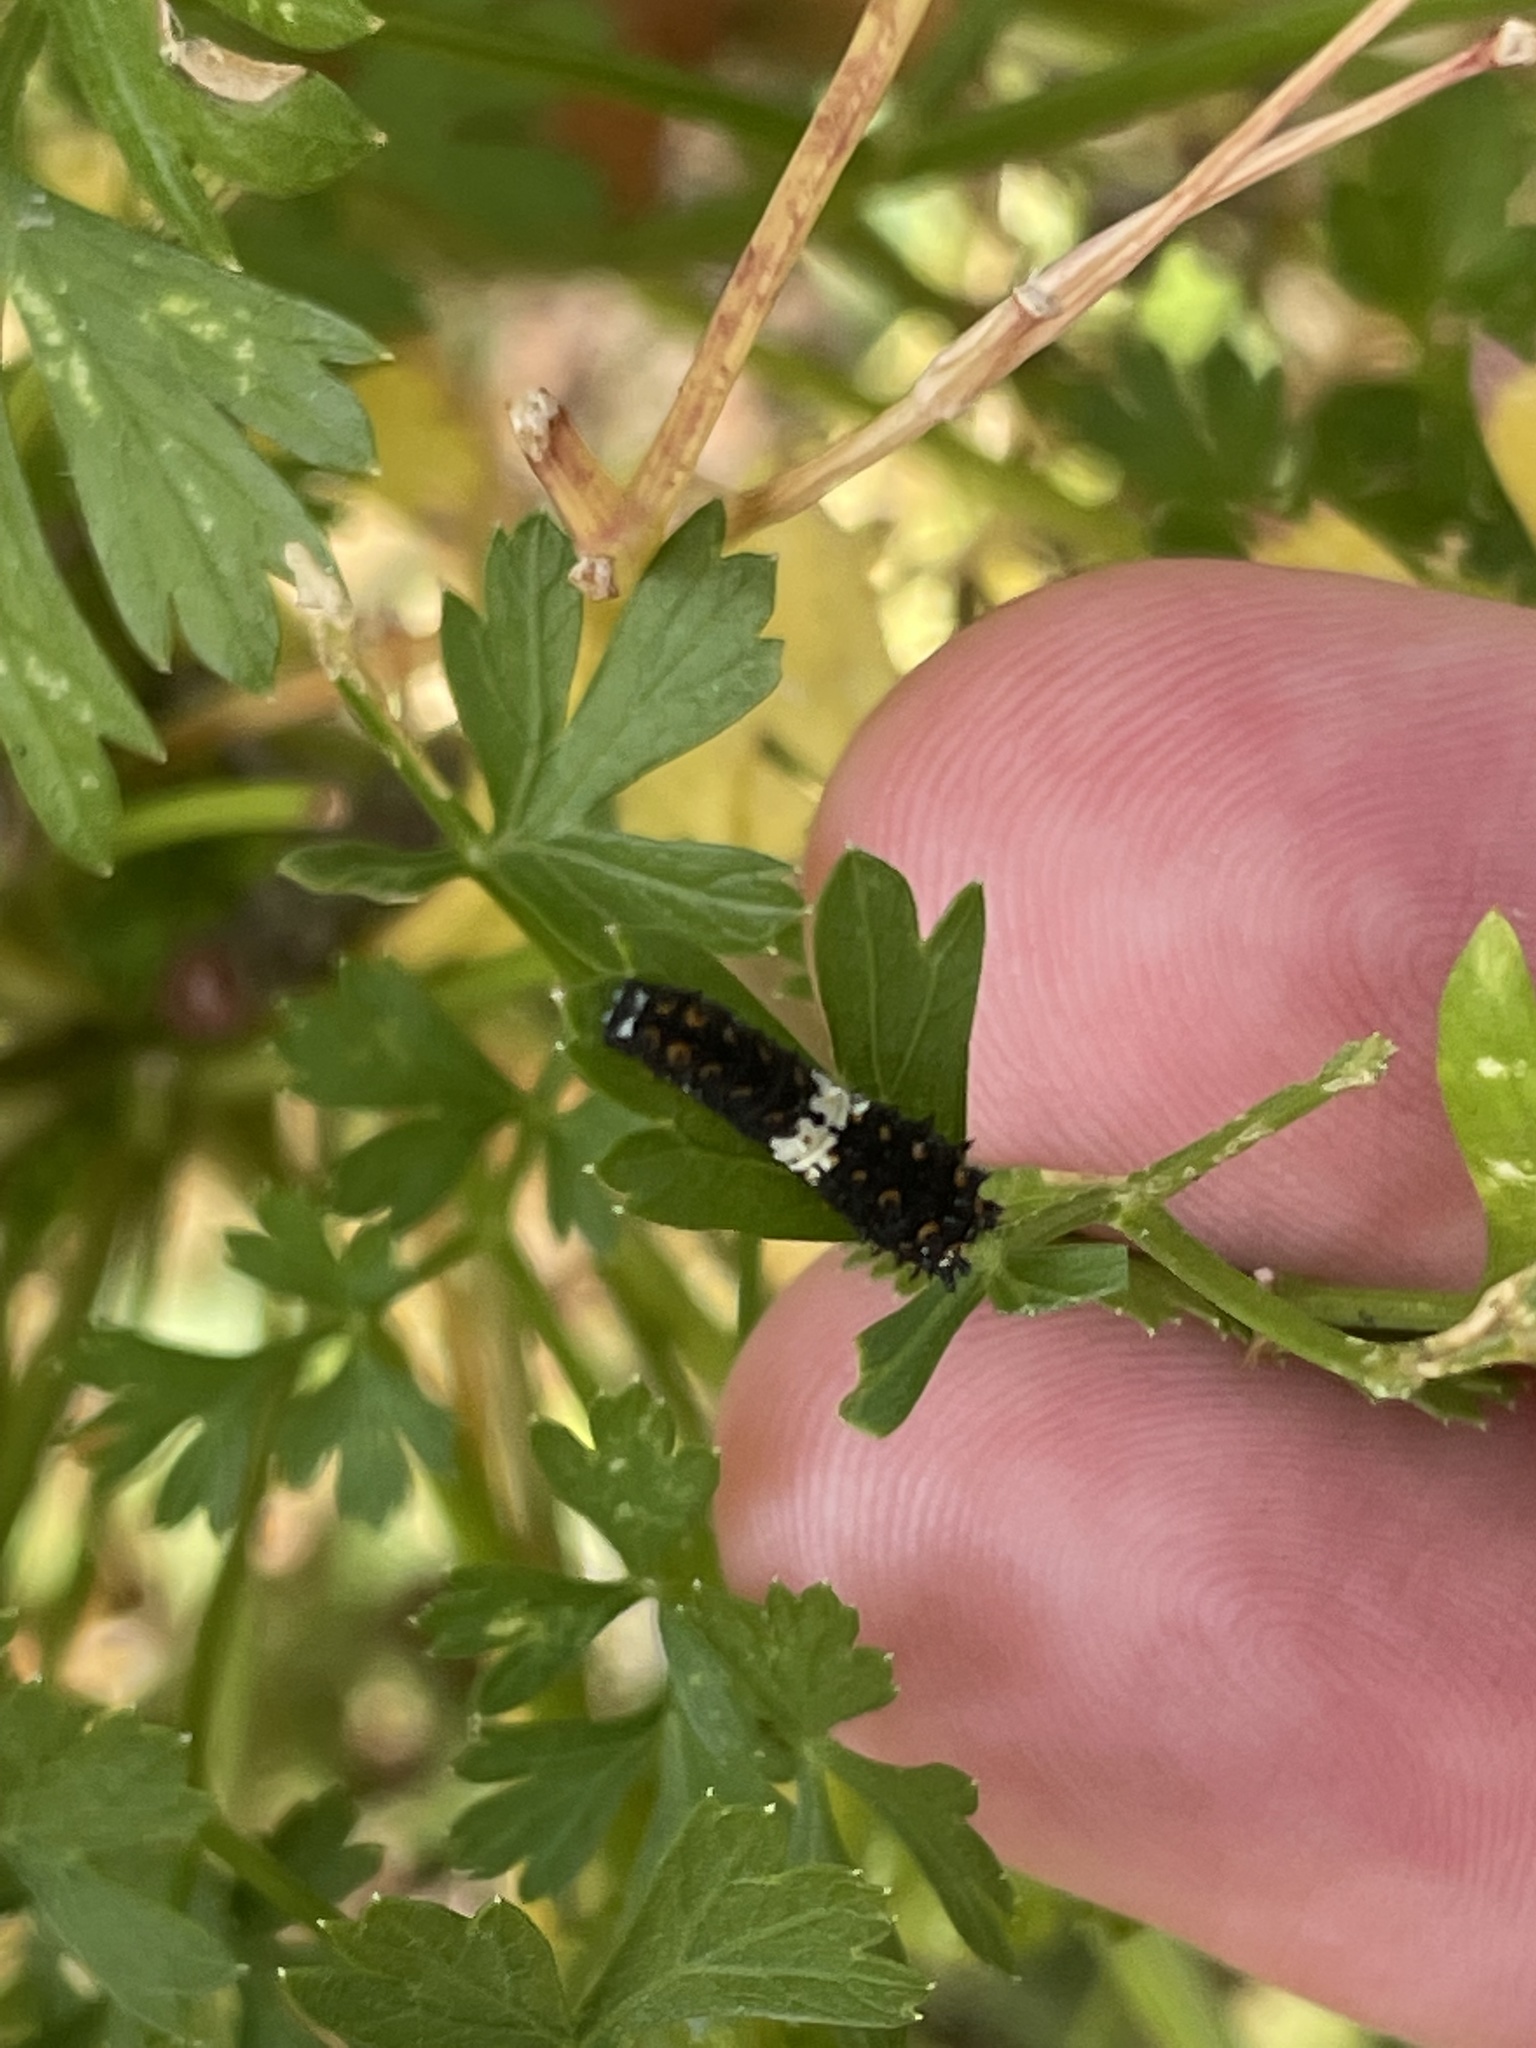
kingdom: Animalia
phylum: Arthropoda
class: Insecta
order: Lepidoptera
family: Papilionidae
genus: Papilio
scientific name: Papilio polyxenes
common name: Black swallowtail
